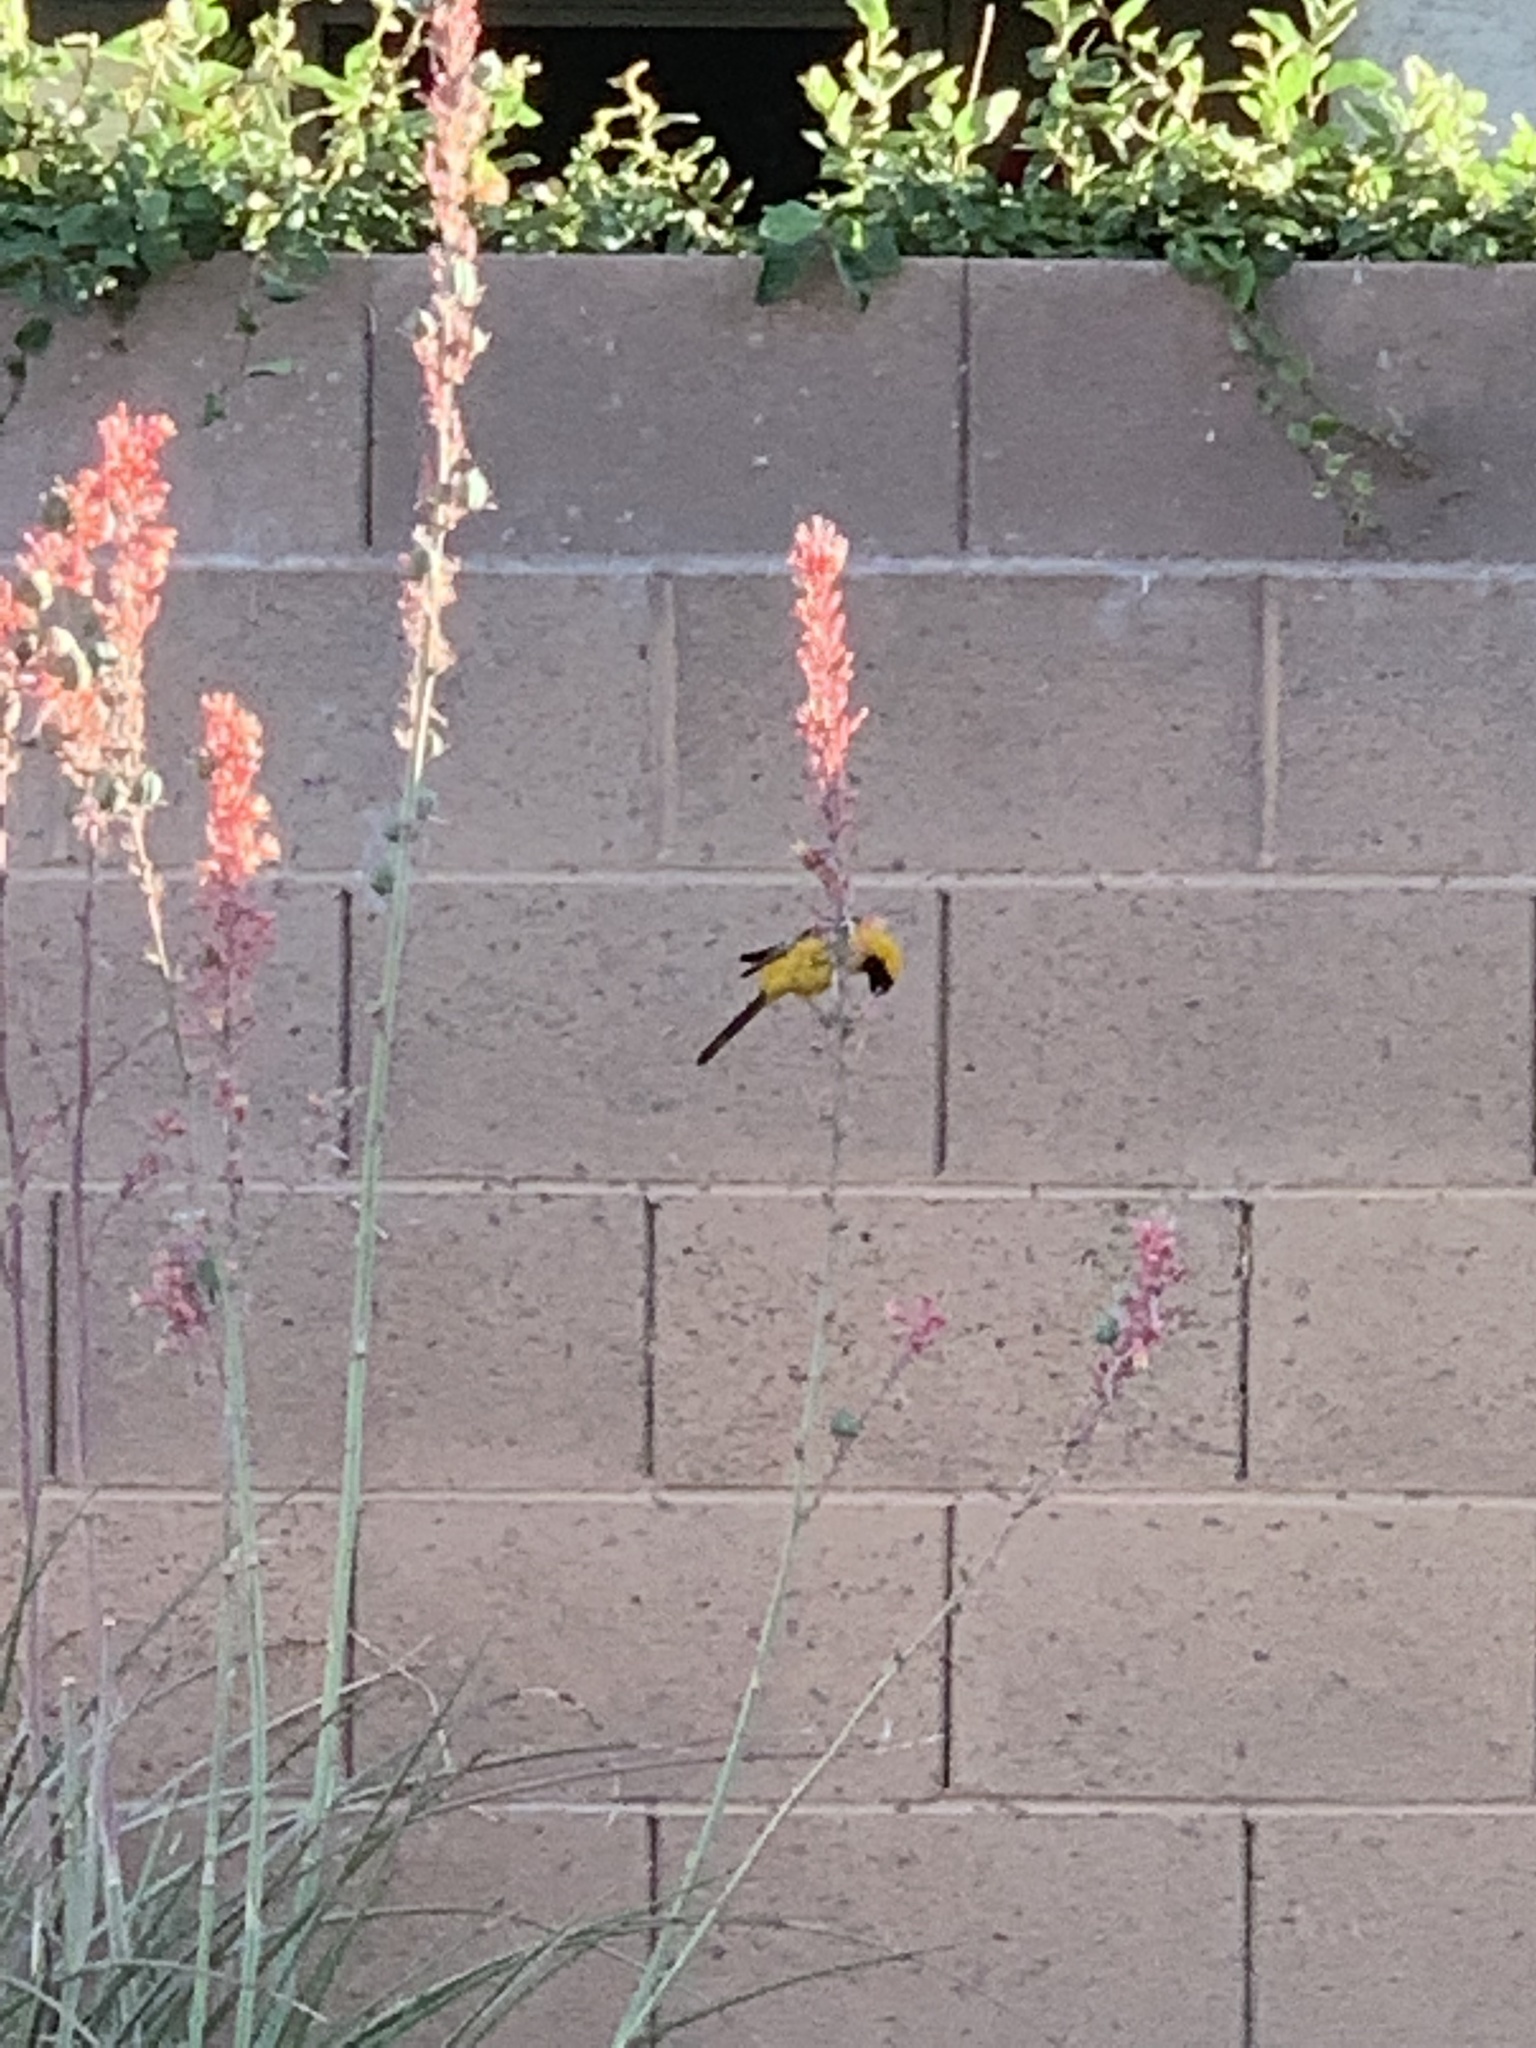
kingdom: Animalia
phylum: Chordata
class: Aves
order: Passeriformes
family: Icteridae
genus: Icterus
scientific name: Icterus cucullatus
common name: Hooded oriole
